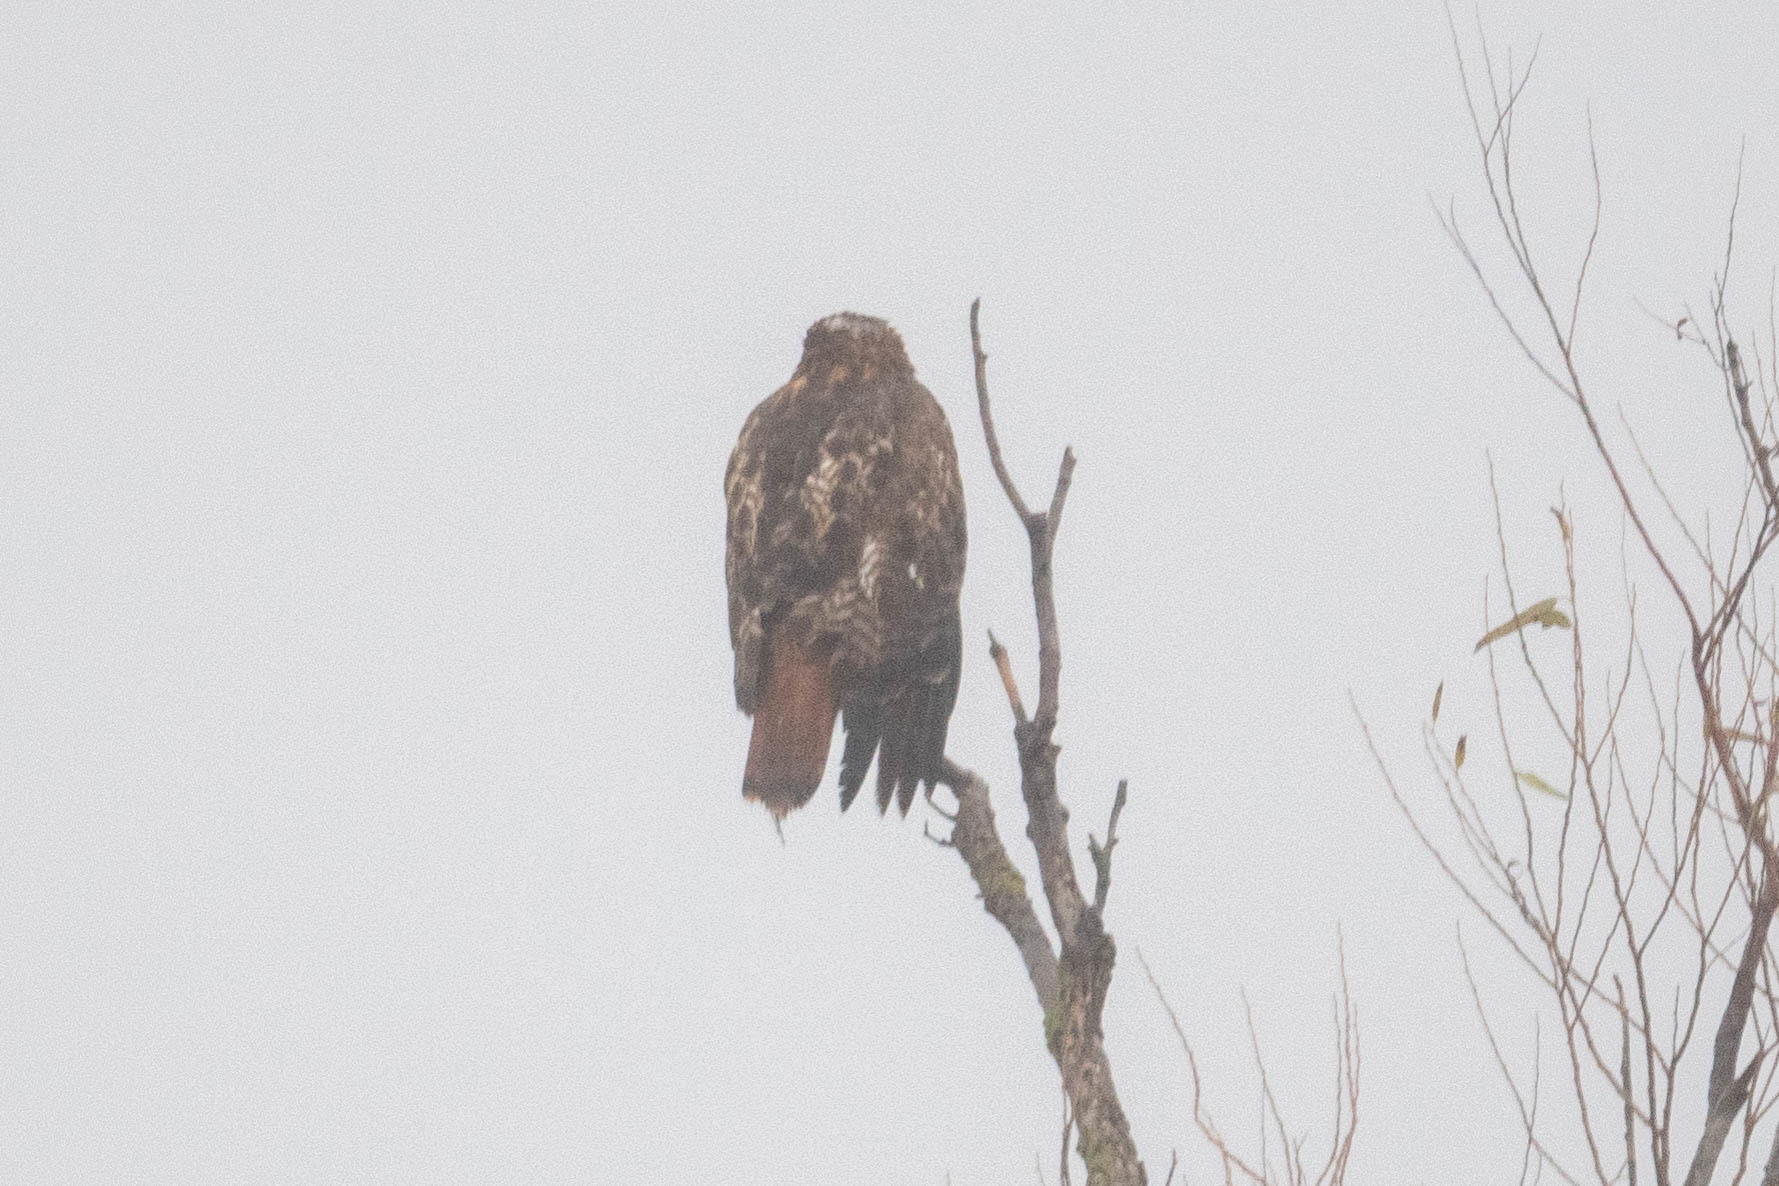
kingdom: Animalia
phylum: Chordata
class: Aves
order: Accipitriformes
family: Accipitridae
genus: Buteo
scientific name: Buteo jamaicensis
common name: Red-tailed hawk
